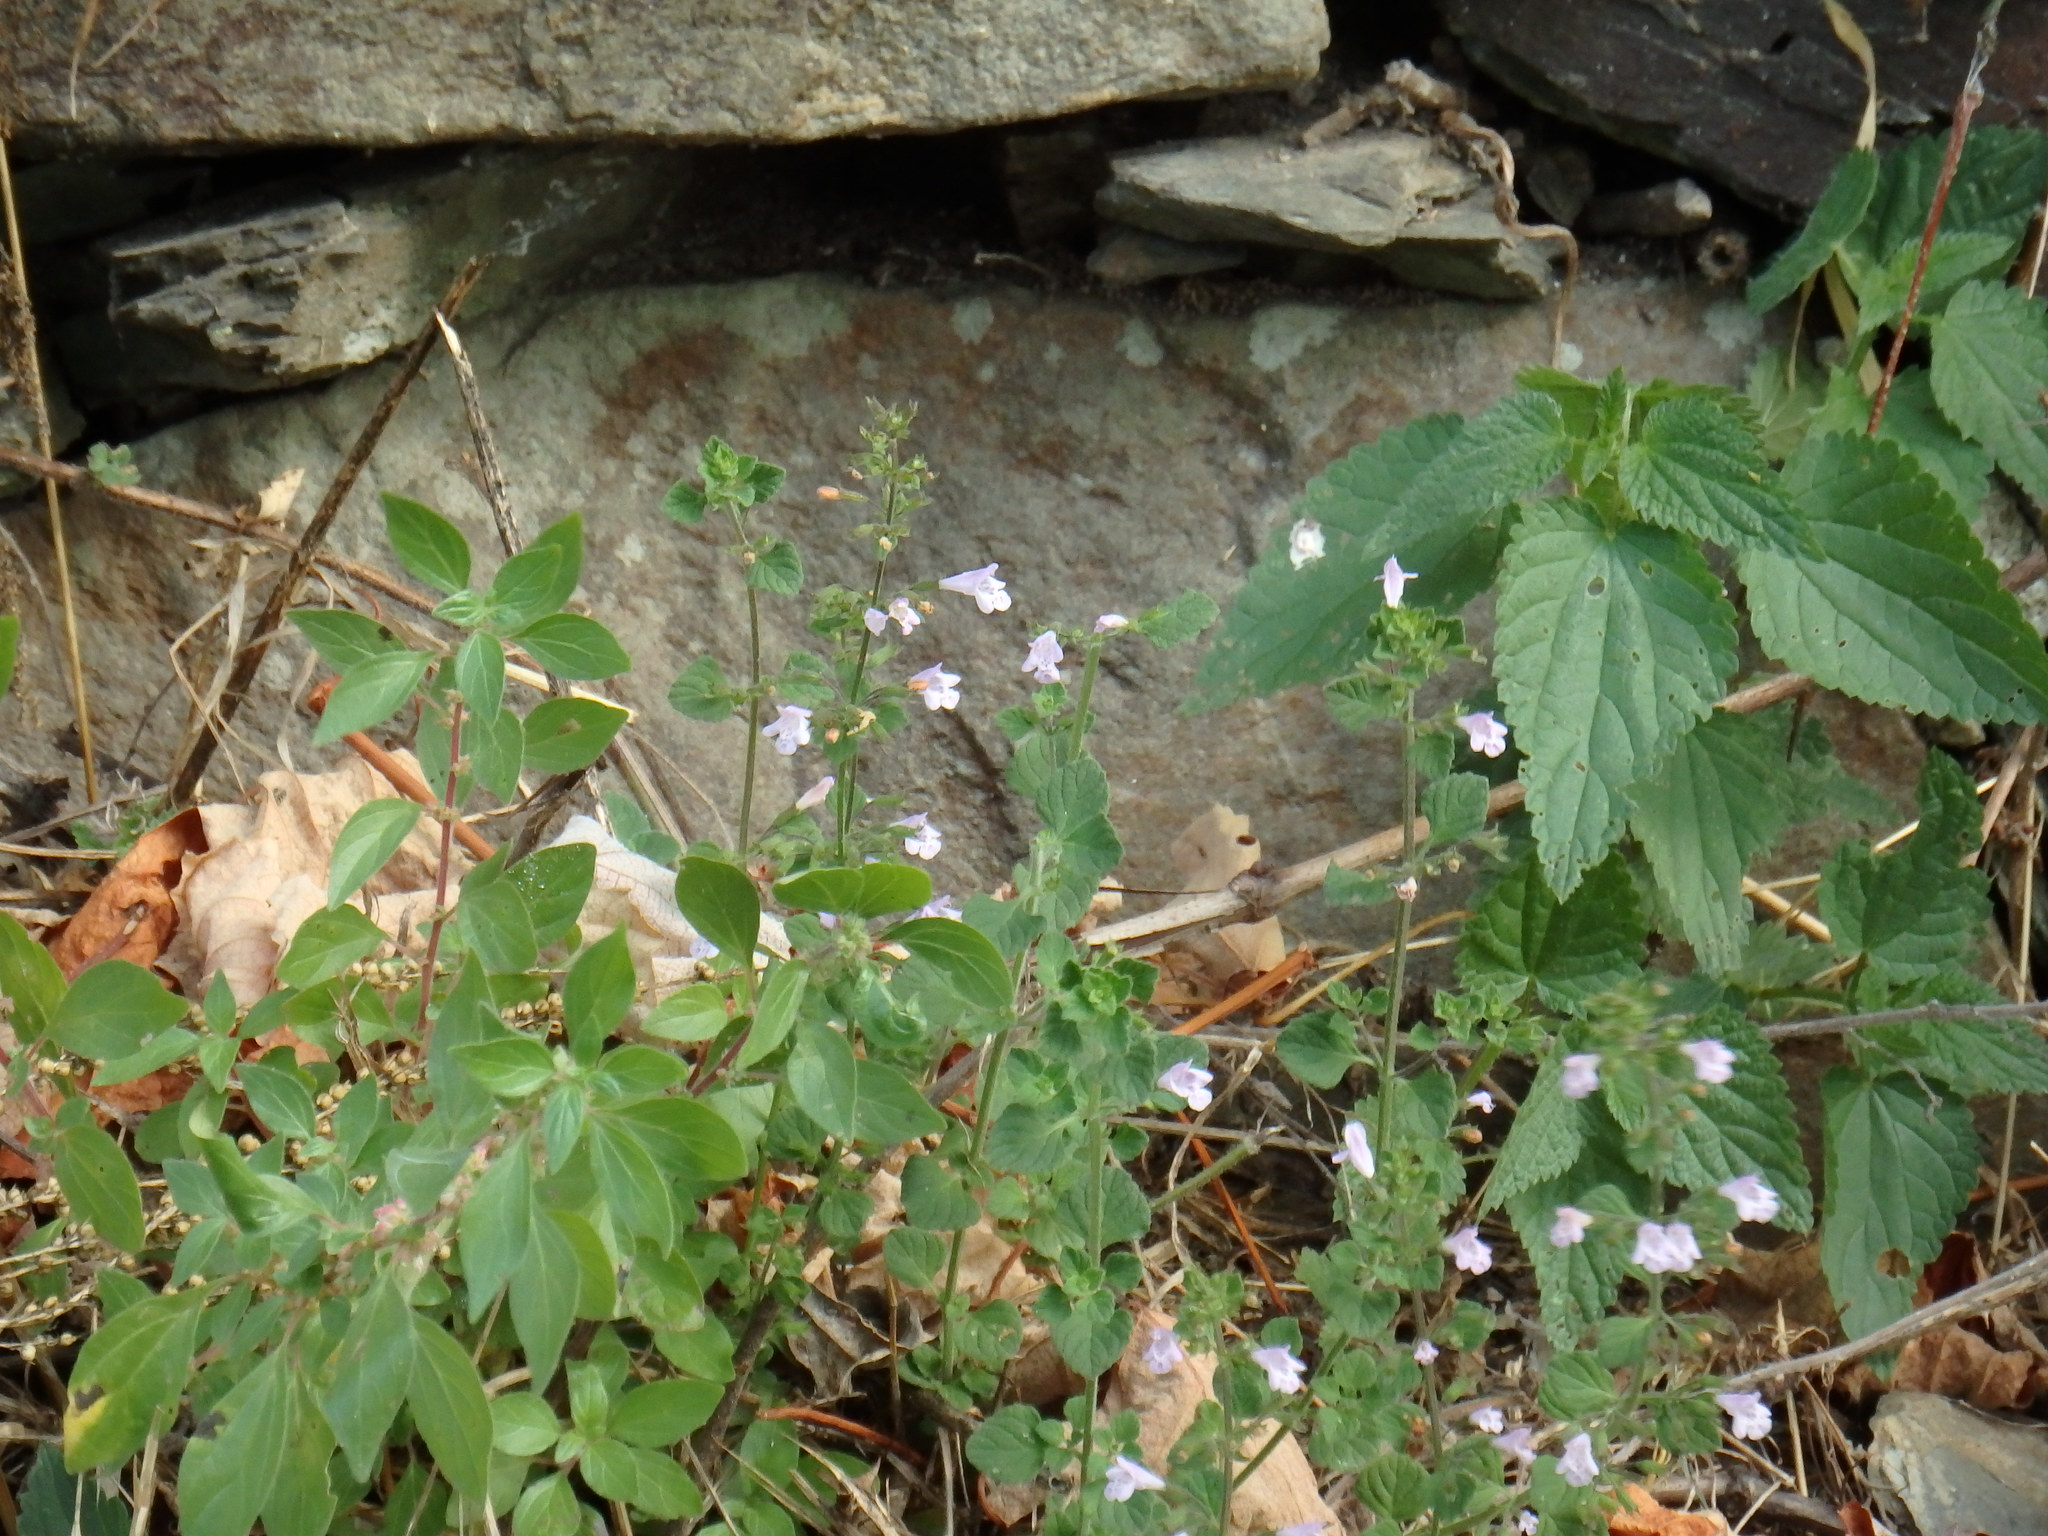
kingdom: Plantae
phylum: Tracheophyta
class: Magnoliopsida
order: Lamiales
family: Lamiaceae
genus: Clinopodium
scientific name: Clinopodium nepeta
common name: Lesser calamint
